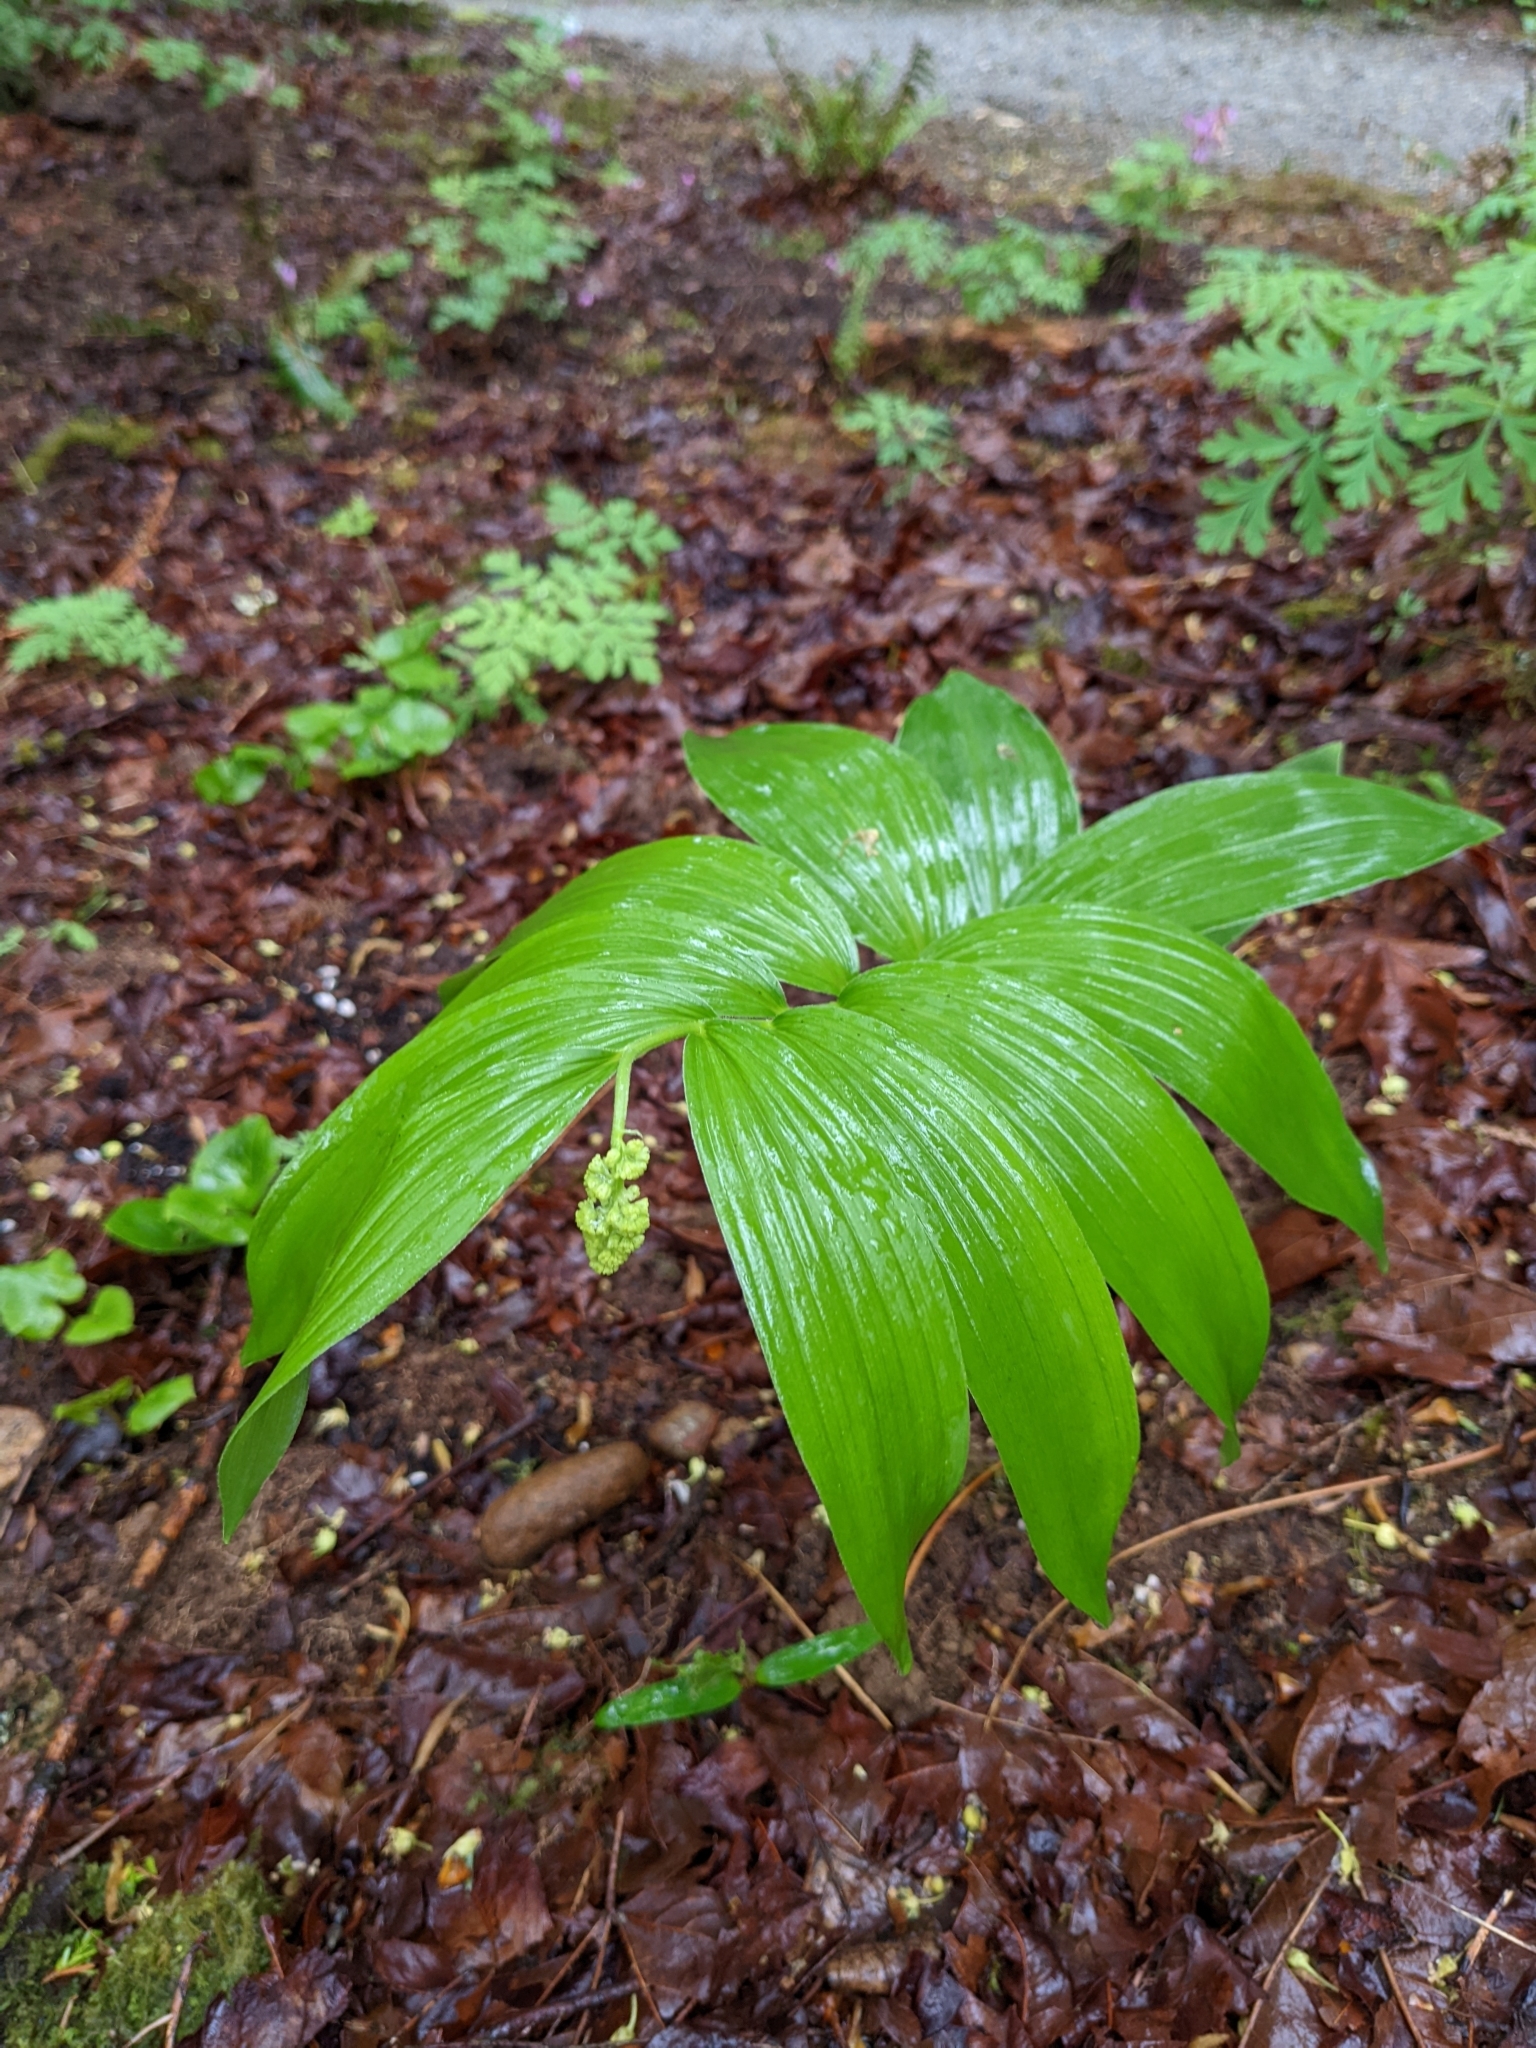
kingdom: Plantae
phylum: Tracheophyta
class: Liliopsida
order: Asparagales
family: Asparagaceae
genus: Maianthemum
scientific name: Maianthemum racemosum
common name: False spikenard
